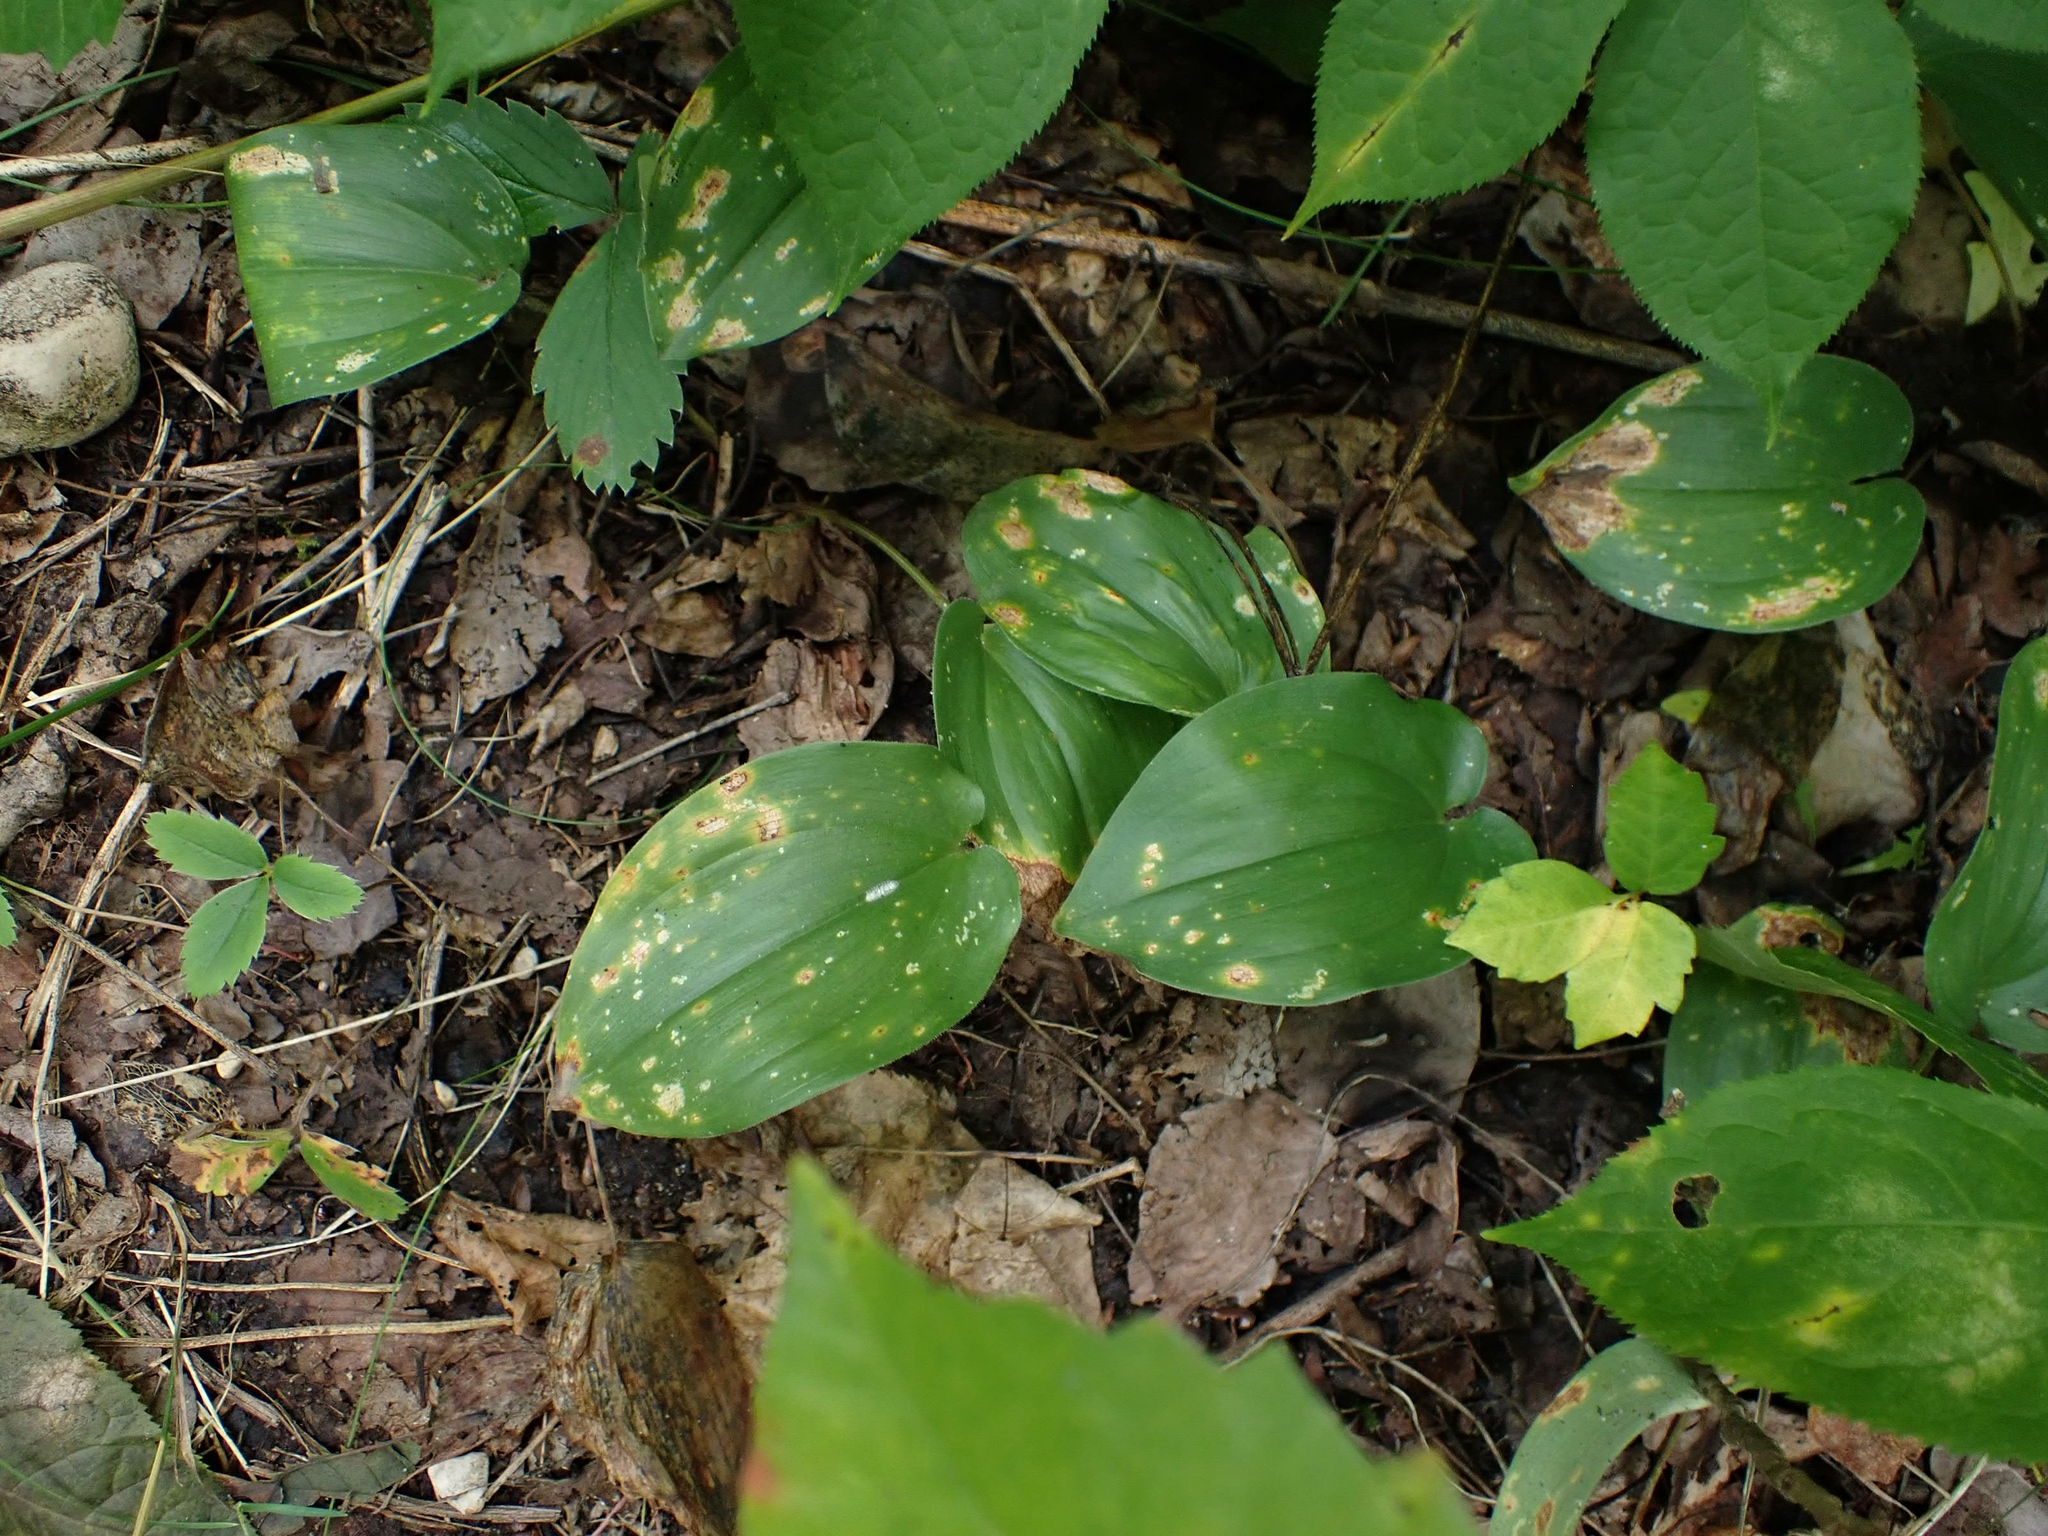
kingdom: Plantae
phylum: Tracheophyta
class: Liliopsida
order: Asparagales
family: Asparagaceae
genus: Maianthemum
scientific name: Maianthemum canadense
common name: False lily-of-the-valley
